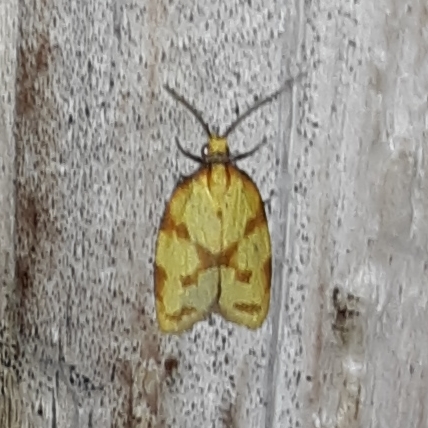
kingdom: Animalia
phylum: Arthropoda
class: Insecta
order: Lepidoptera
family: Tortricidae
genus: Sparganothis
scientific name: Sparganothis sulfureana
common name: Sparganothis fruitworm moth
